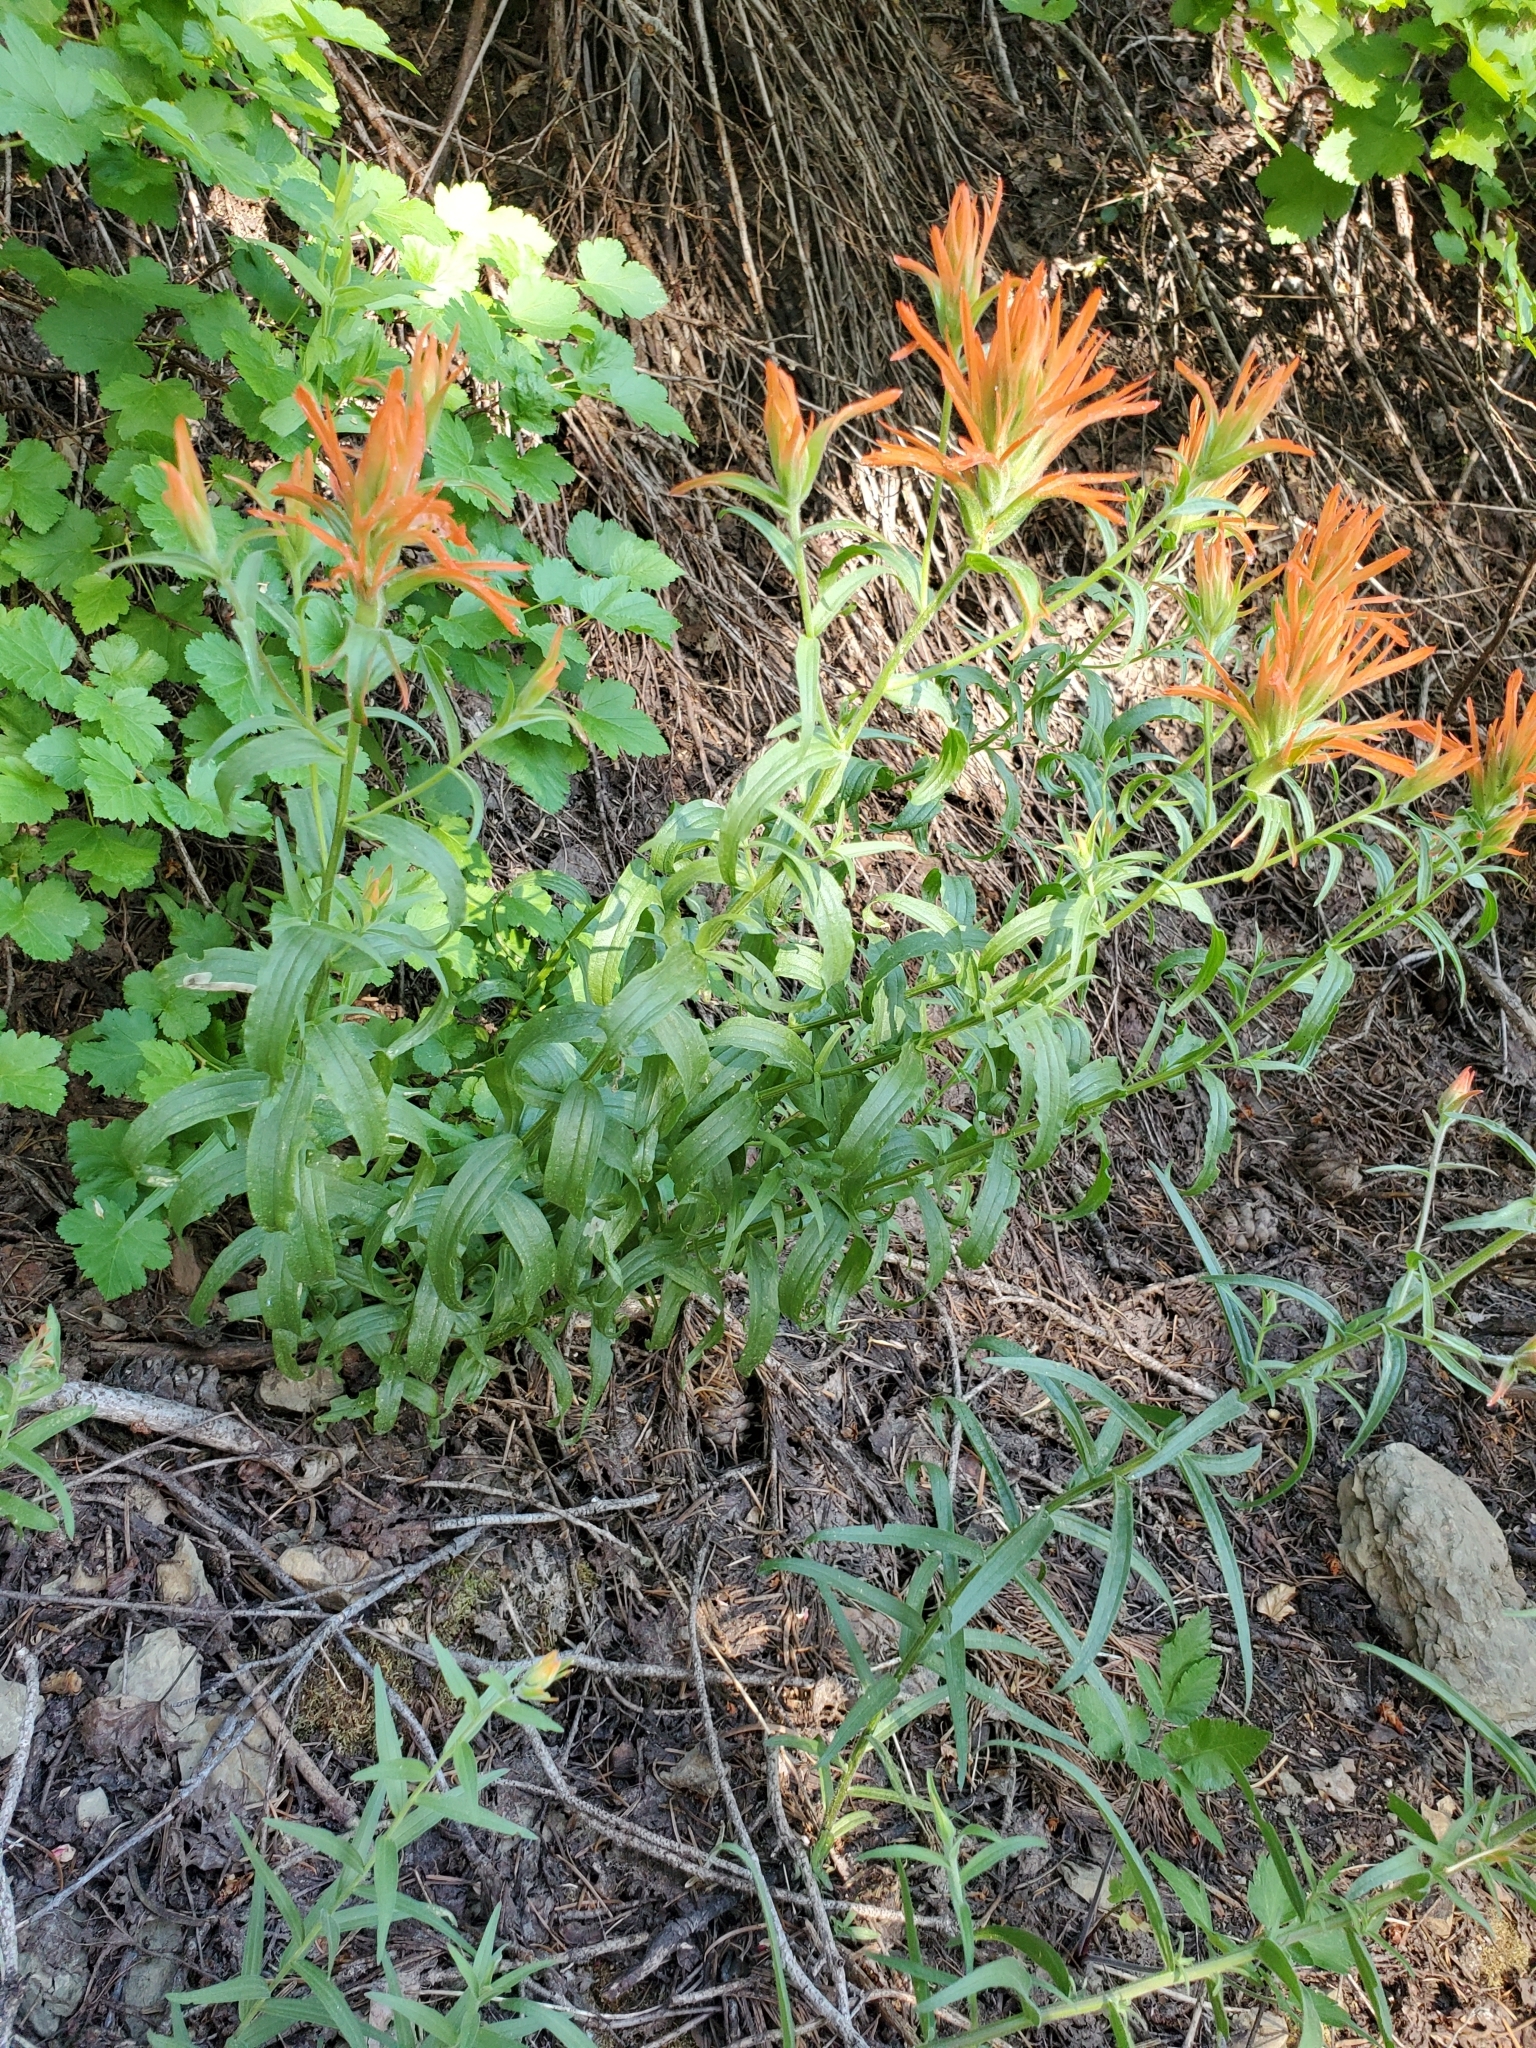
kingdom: Plantae
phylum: Tracheophyta
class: Magnoliopsida
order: Lamiales
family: Orobanchaceae
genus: Castilleja
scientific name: Castilleja miniata
